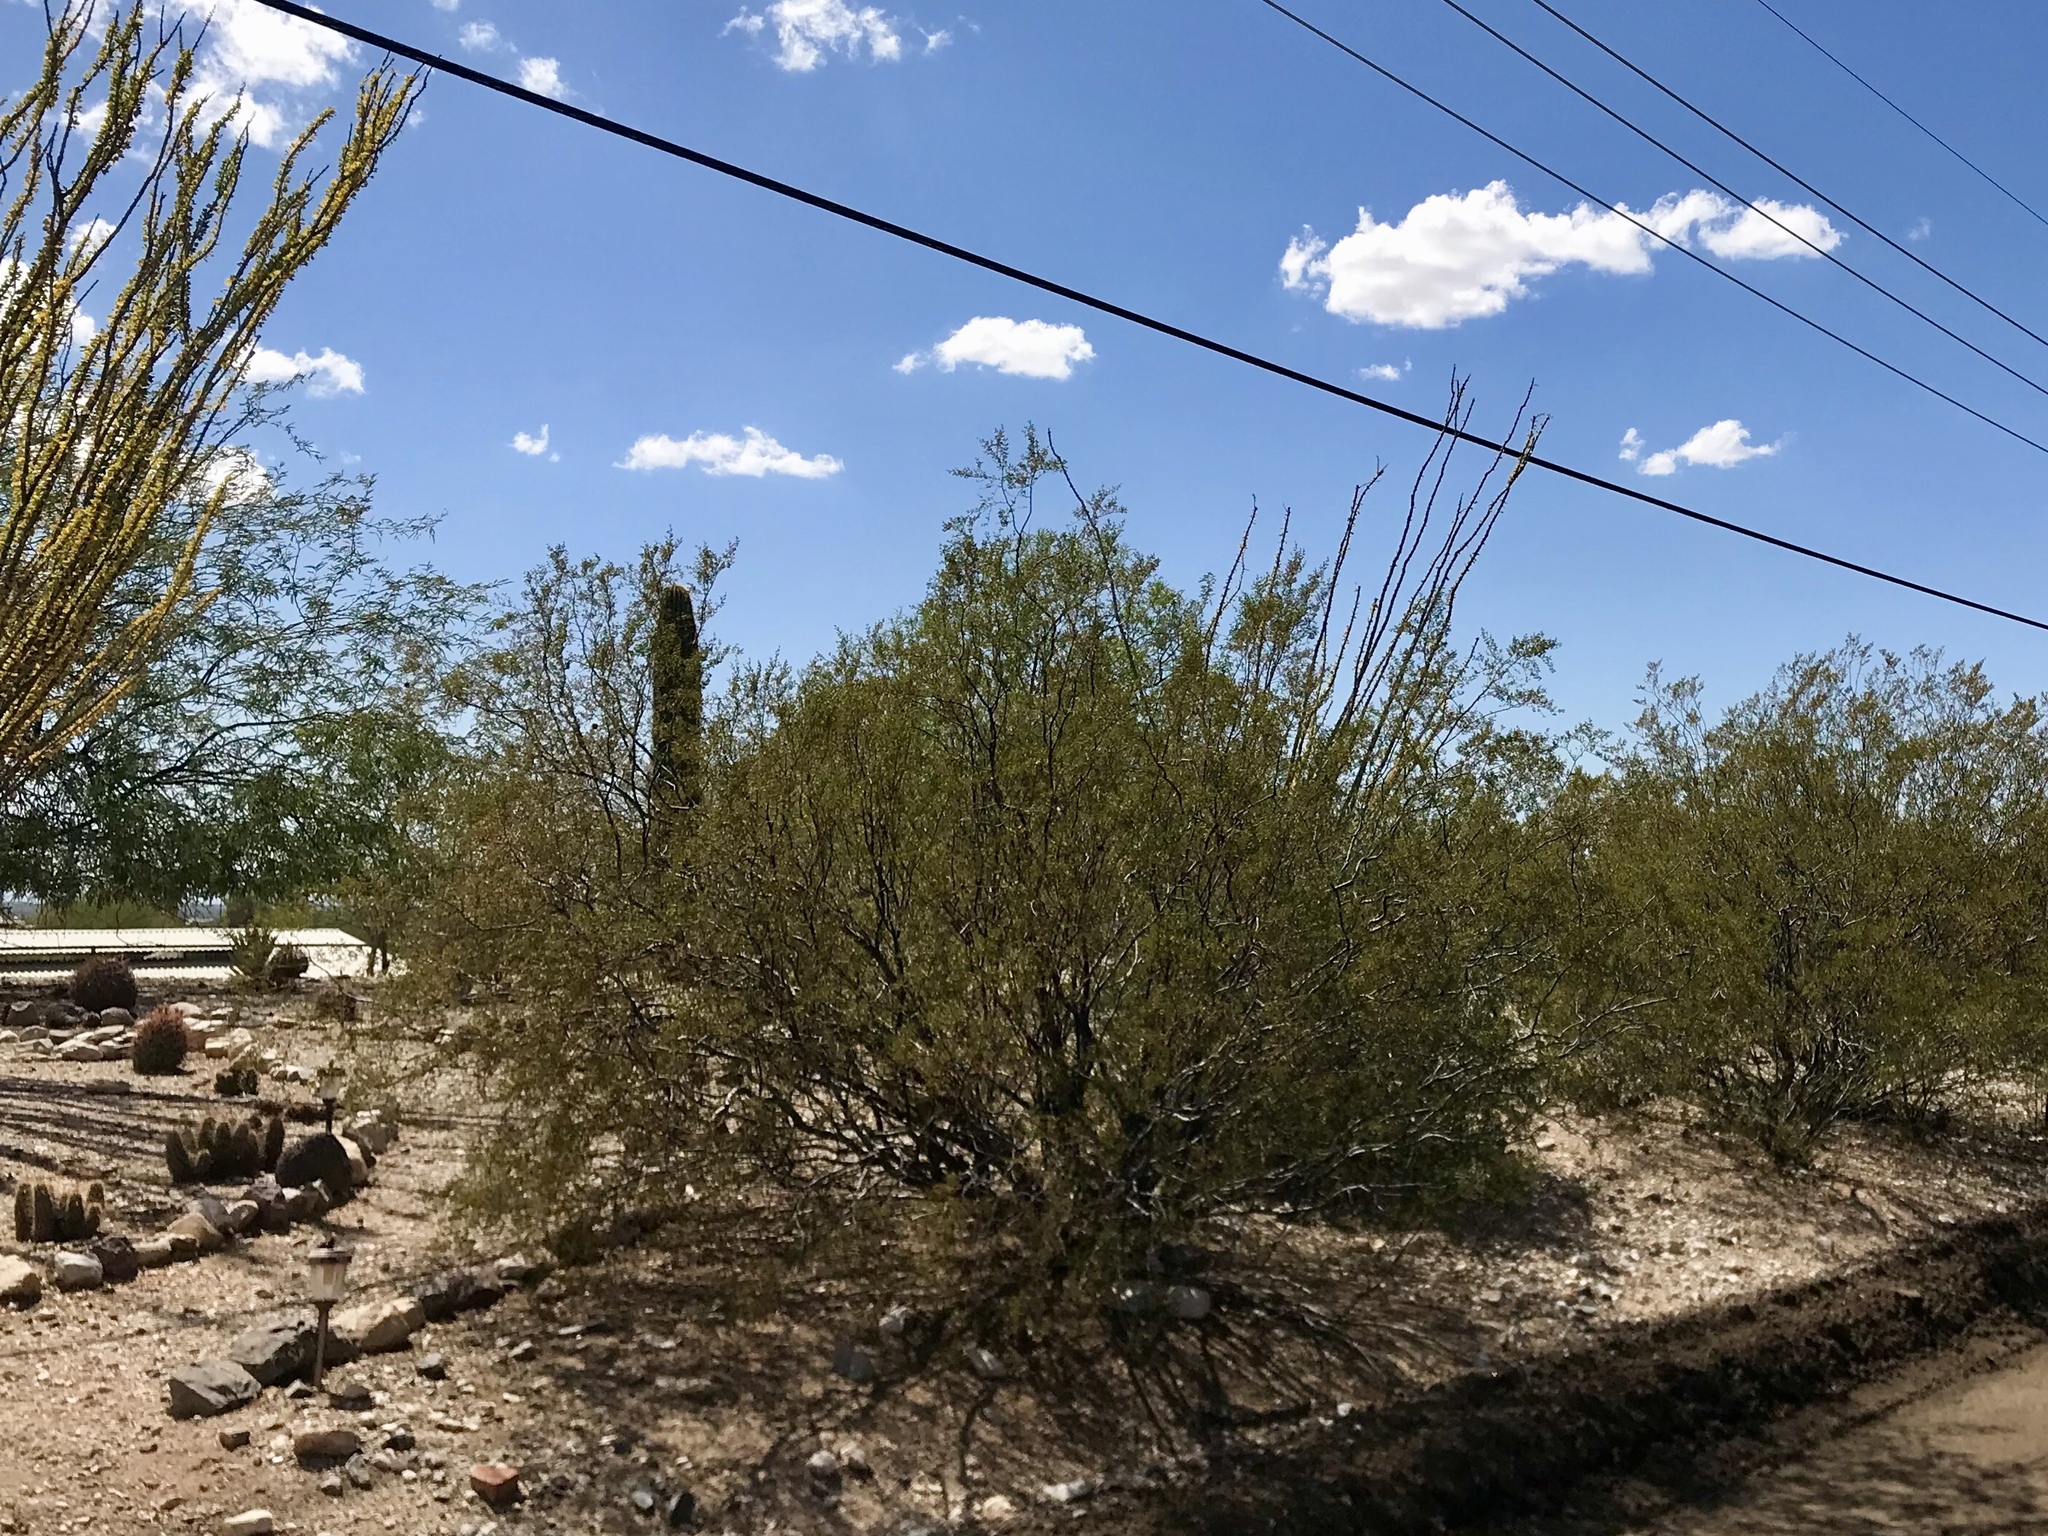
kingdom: Plantae
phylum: Tracheophyta
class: Magnoliopsida
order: Zygophyllales
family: Zygophyllaceae
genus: Larrea
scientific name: Larrea tridentata
